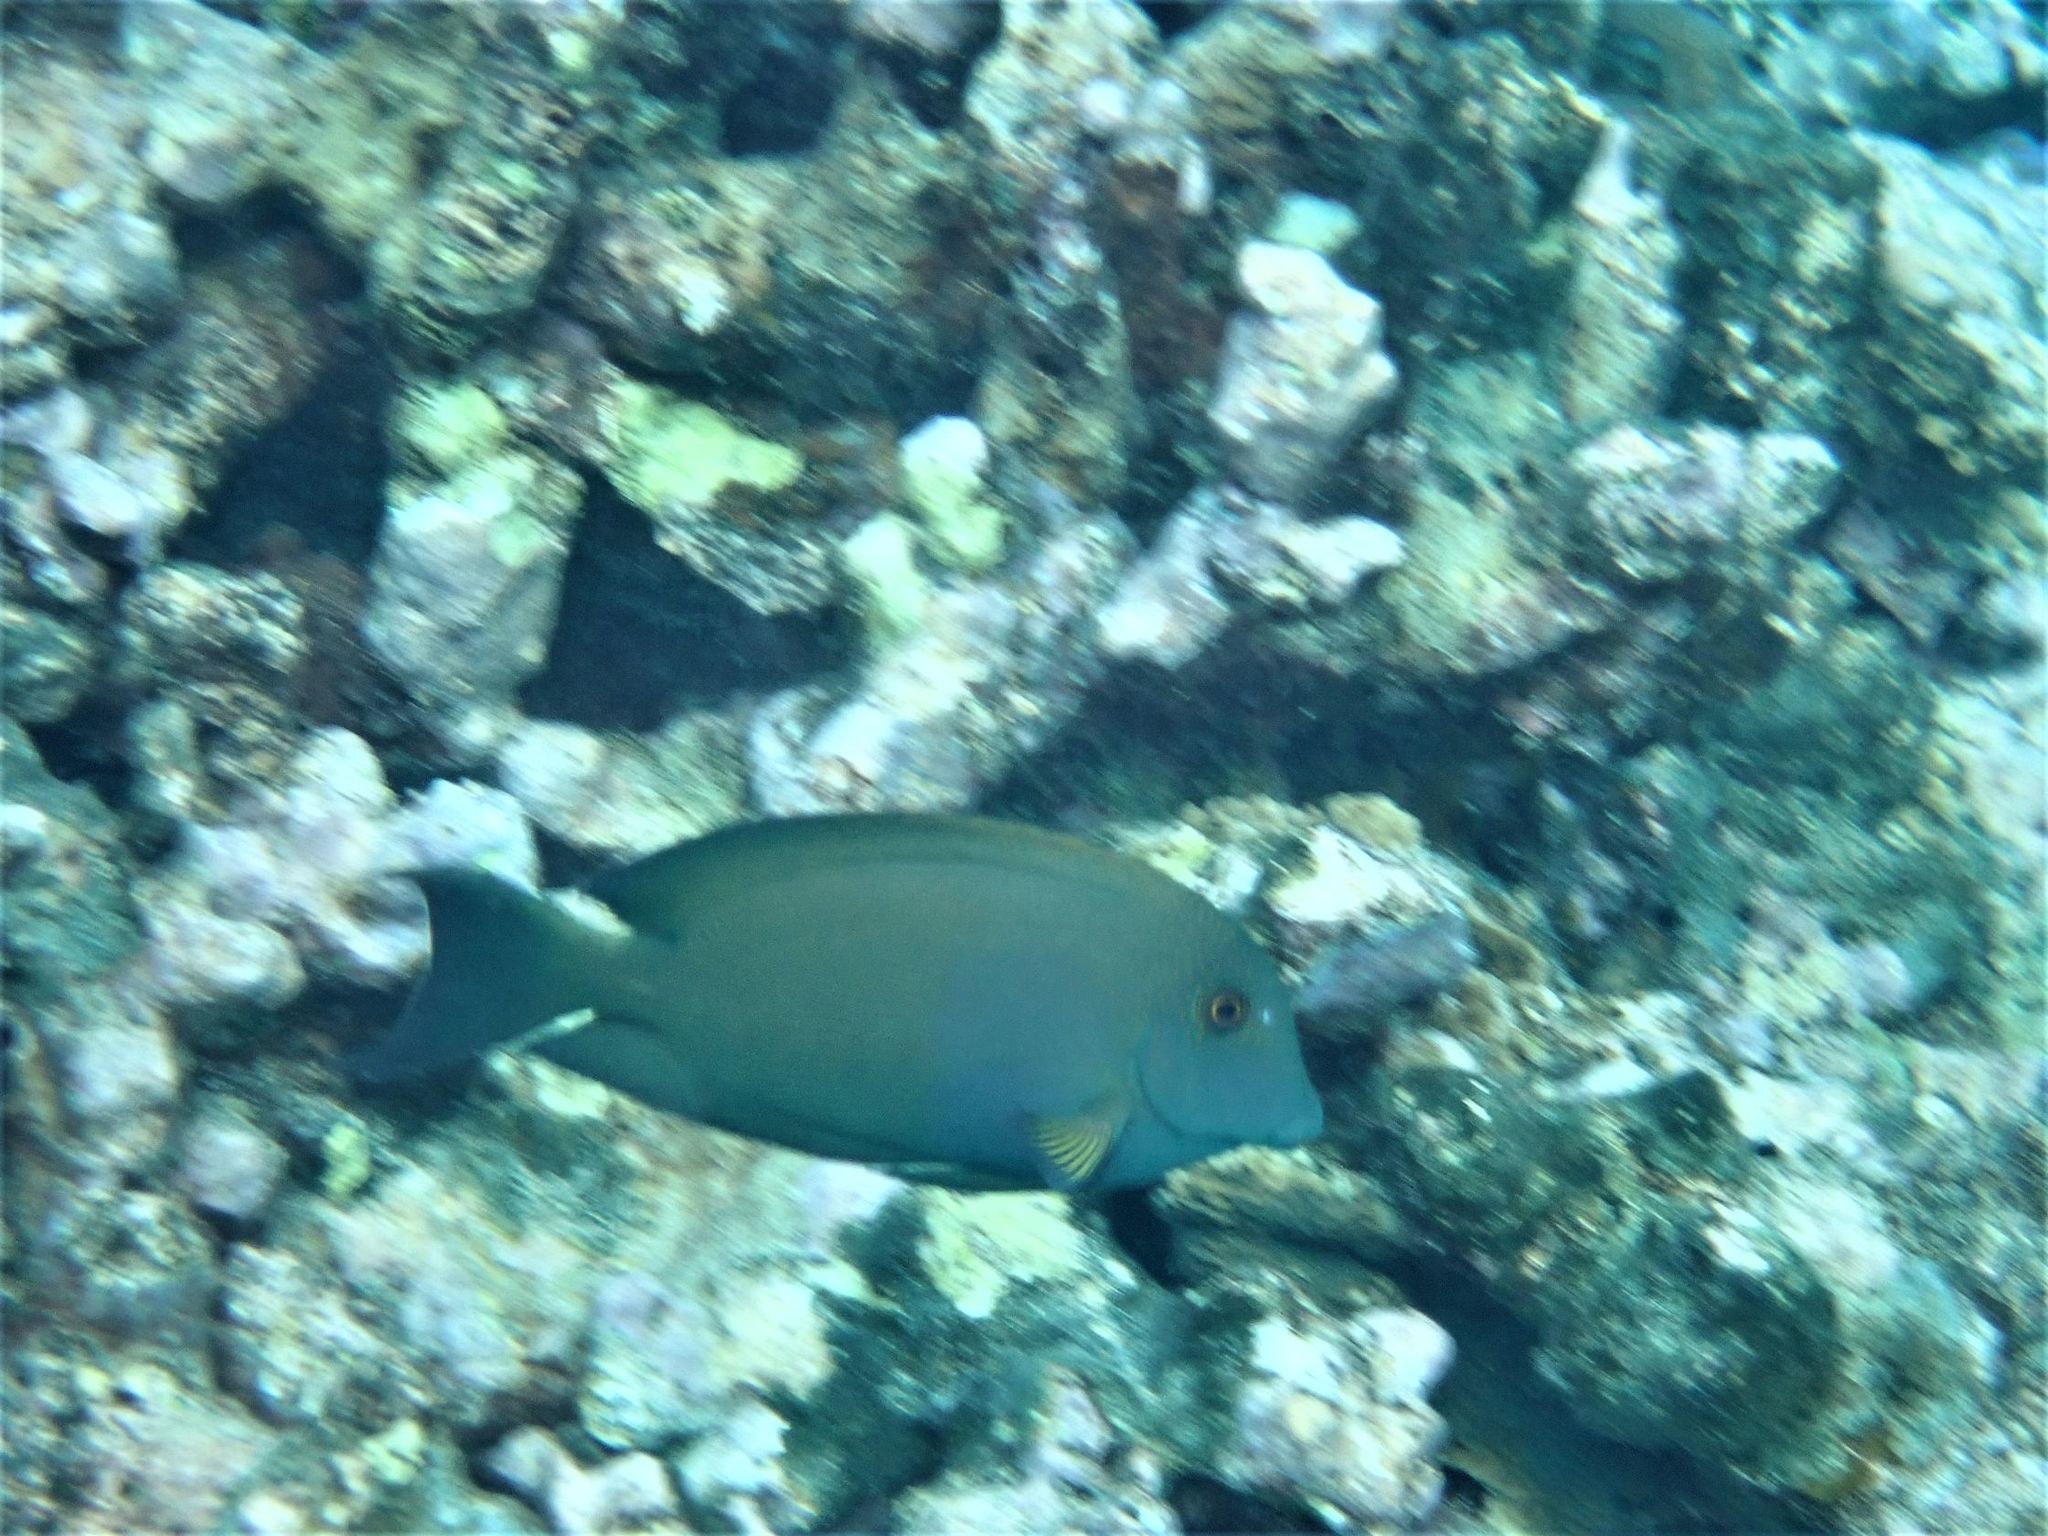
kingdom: Animalia
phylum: Chordata
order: Perciformes
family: Acanthuridae
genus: Ctenochaetus
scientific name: Ctenochaetus striatus
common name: Bristle-toothed surgeonfish
